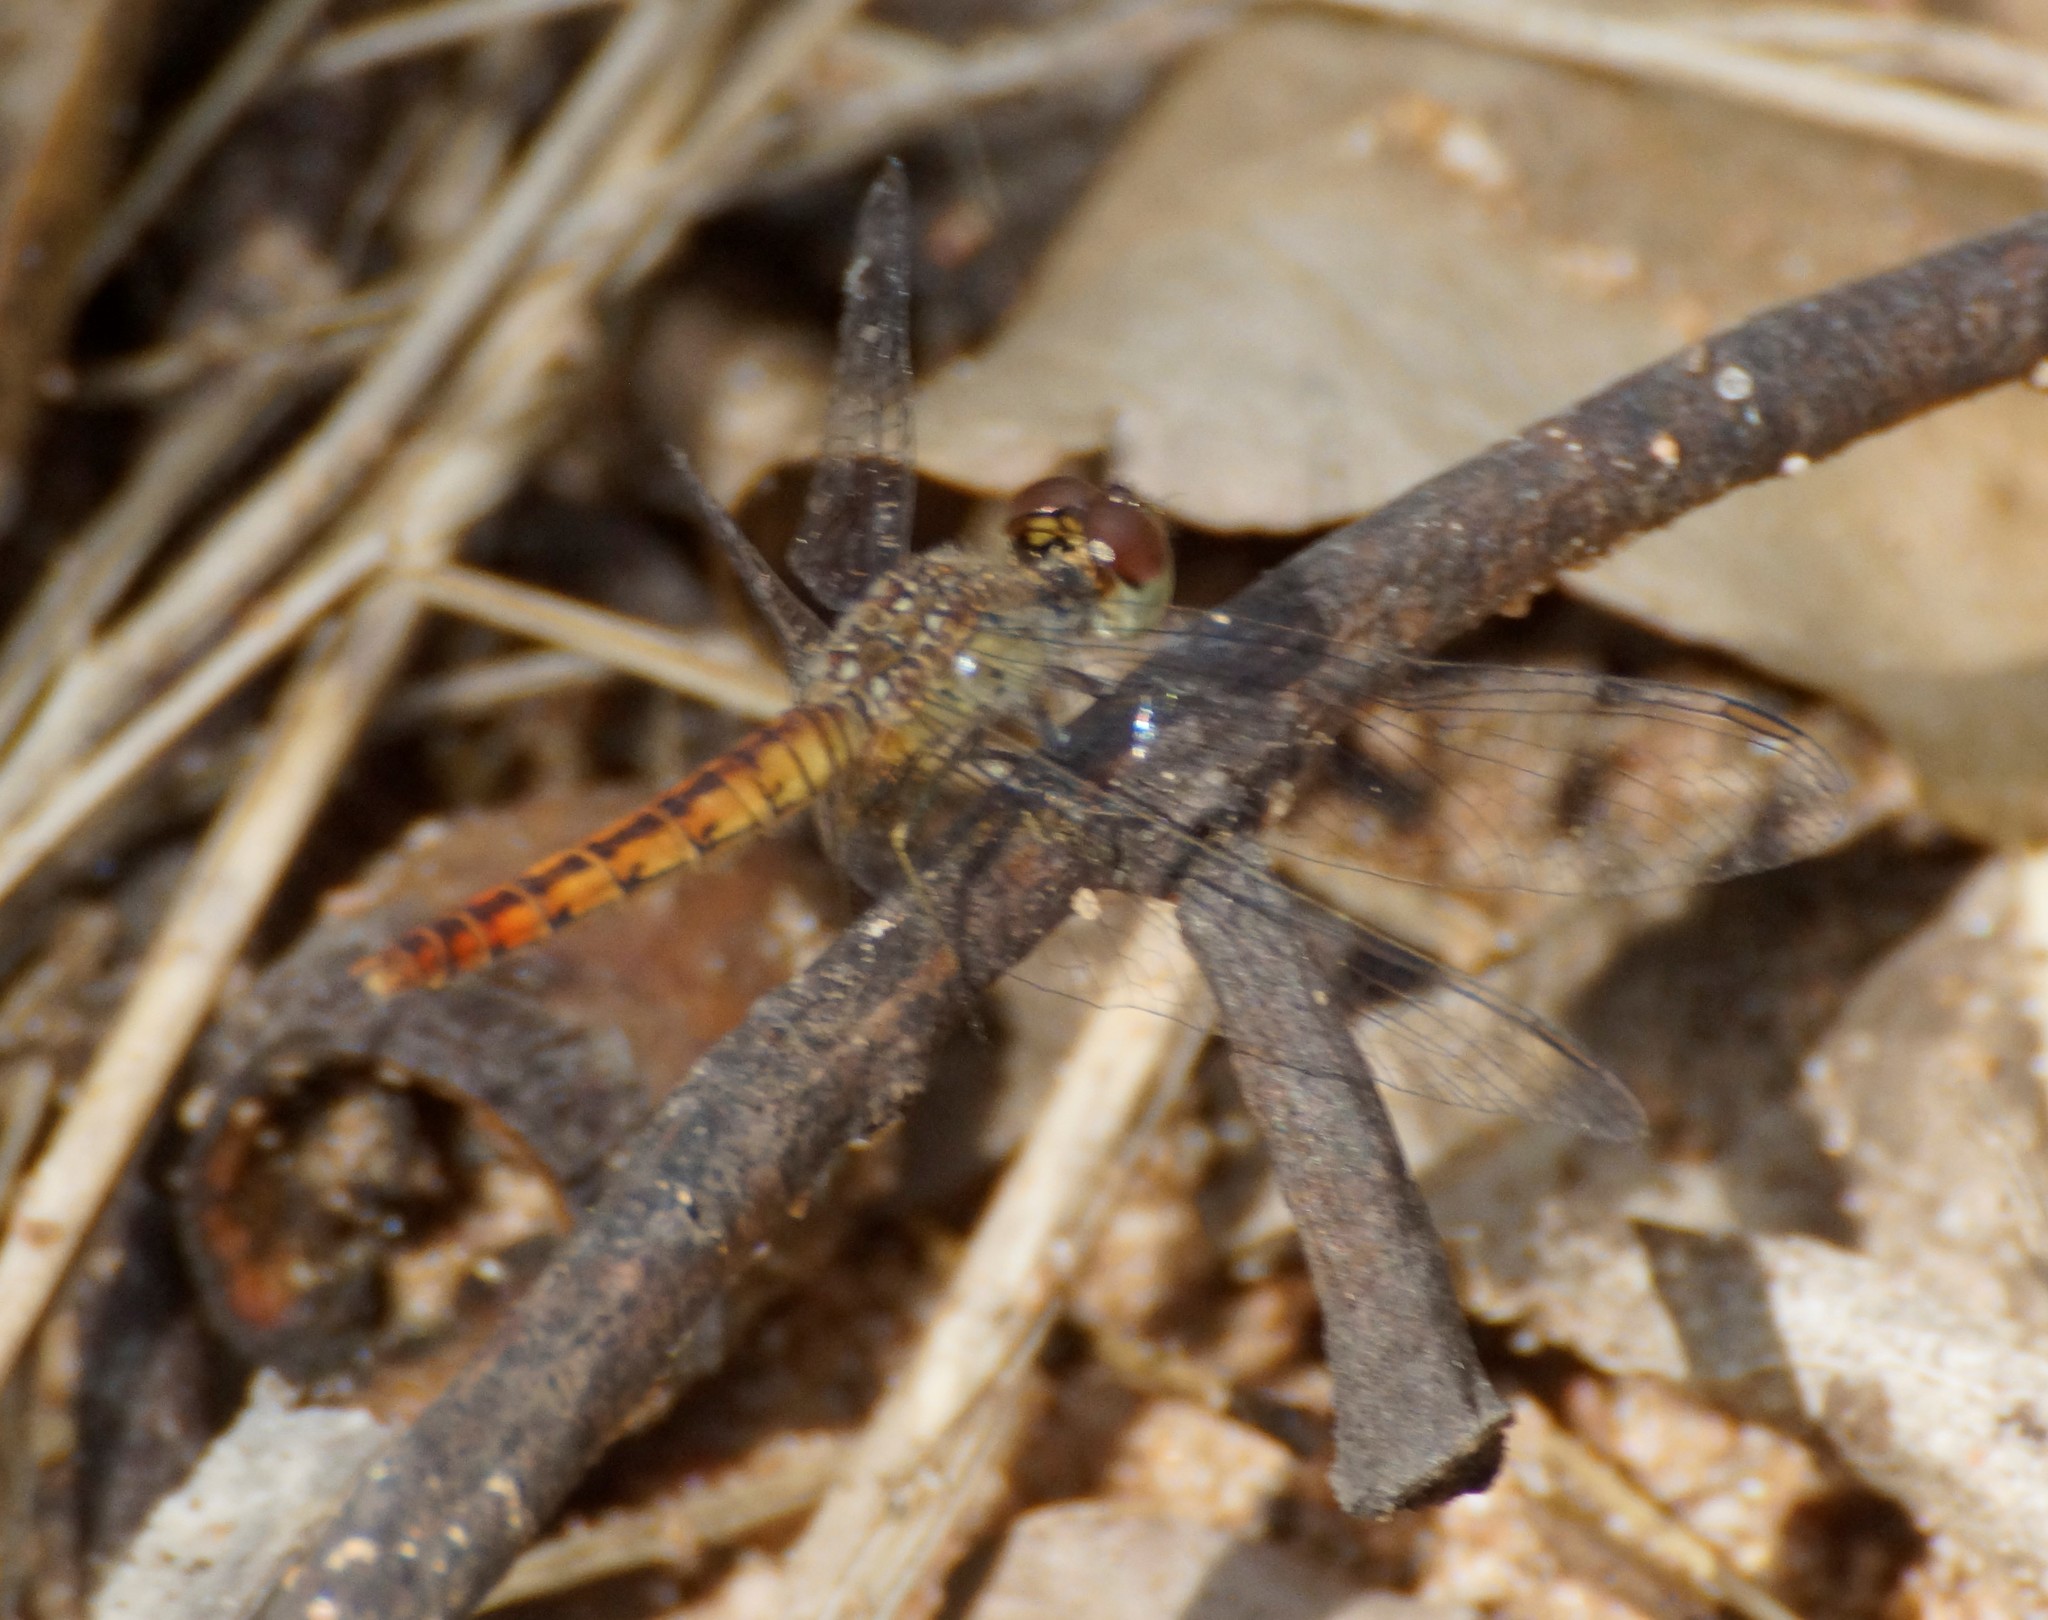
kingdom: Animalia
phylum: Arthropoda
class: Insecta
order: Odonata
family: Libellulidae
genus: Nannodiplax
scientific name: Nannodiplax rubra
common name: Pygmy percher
